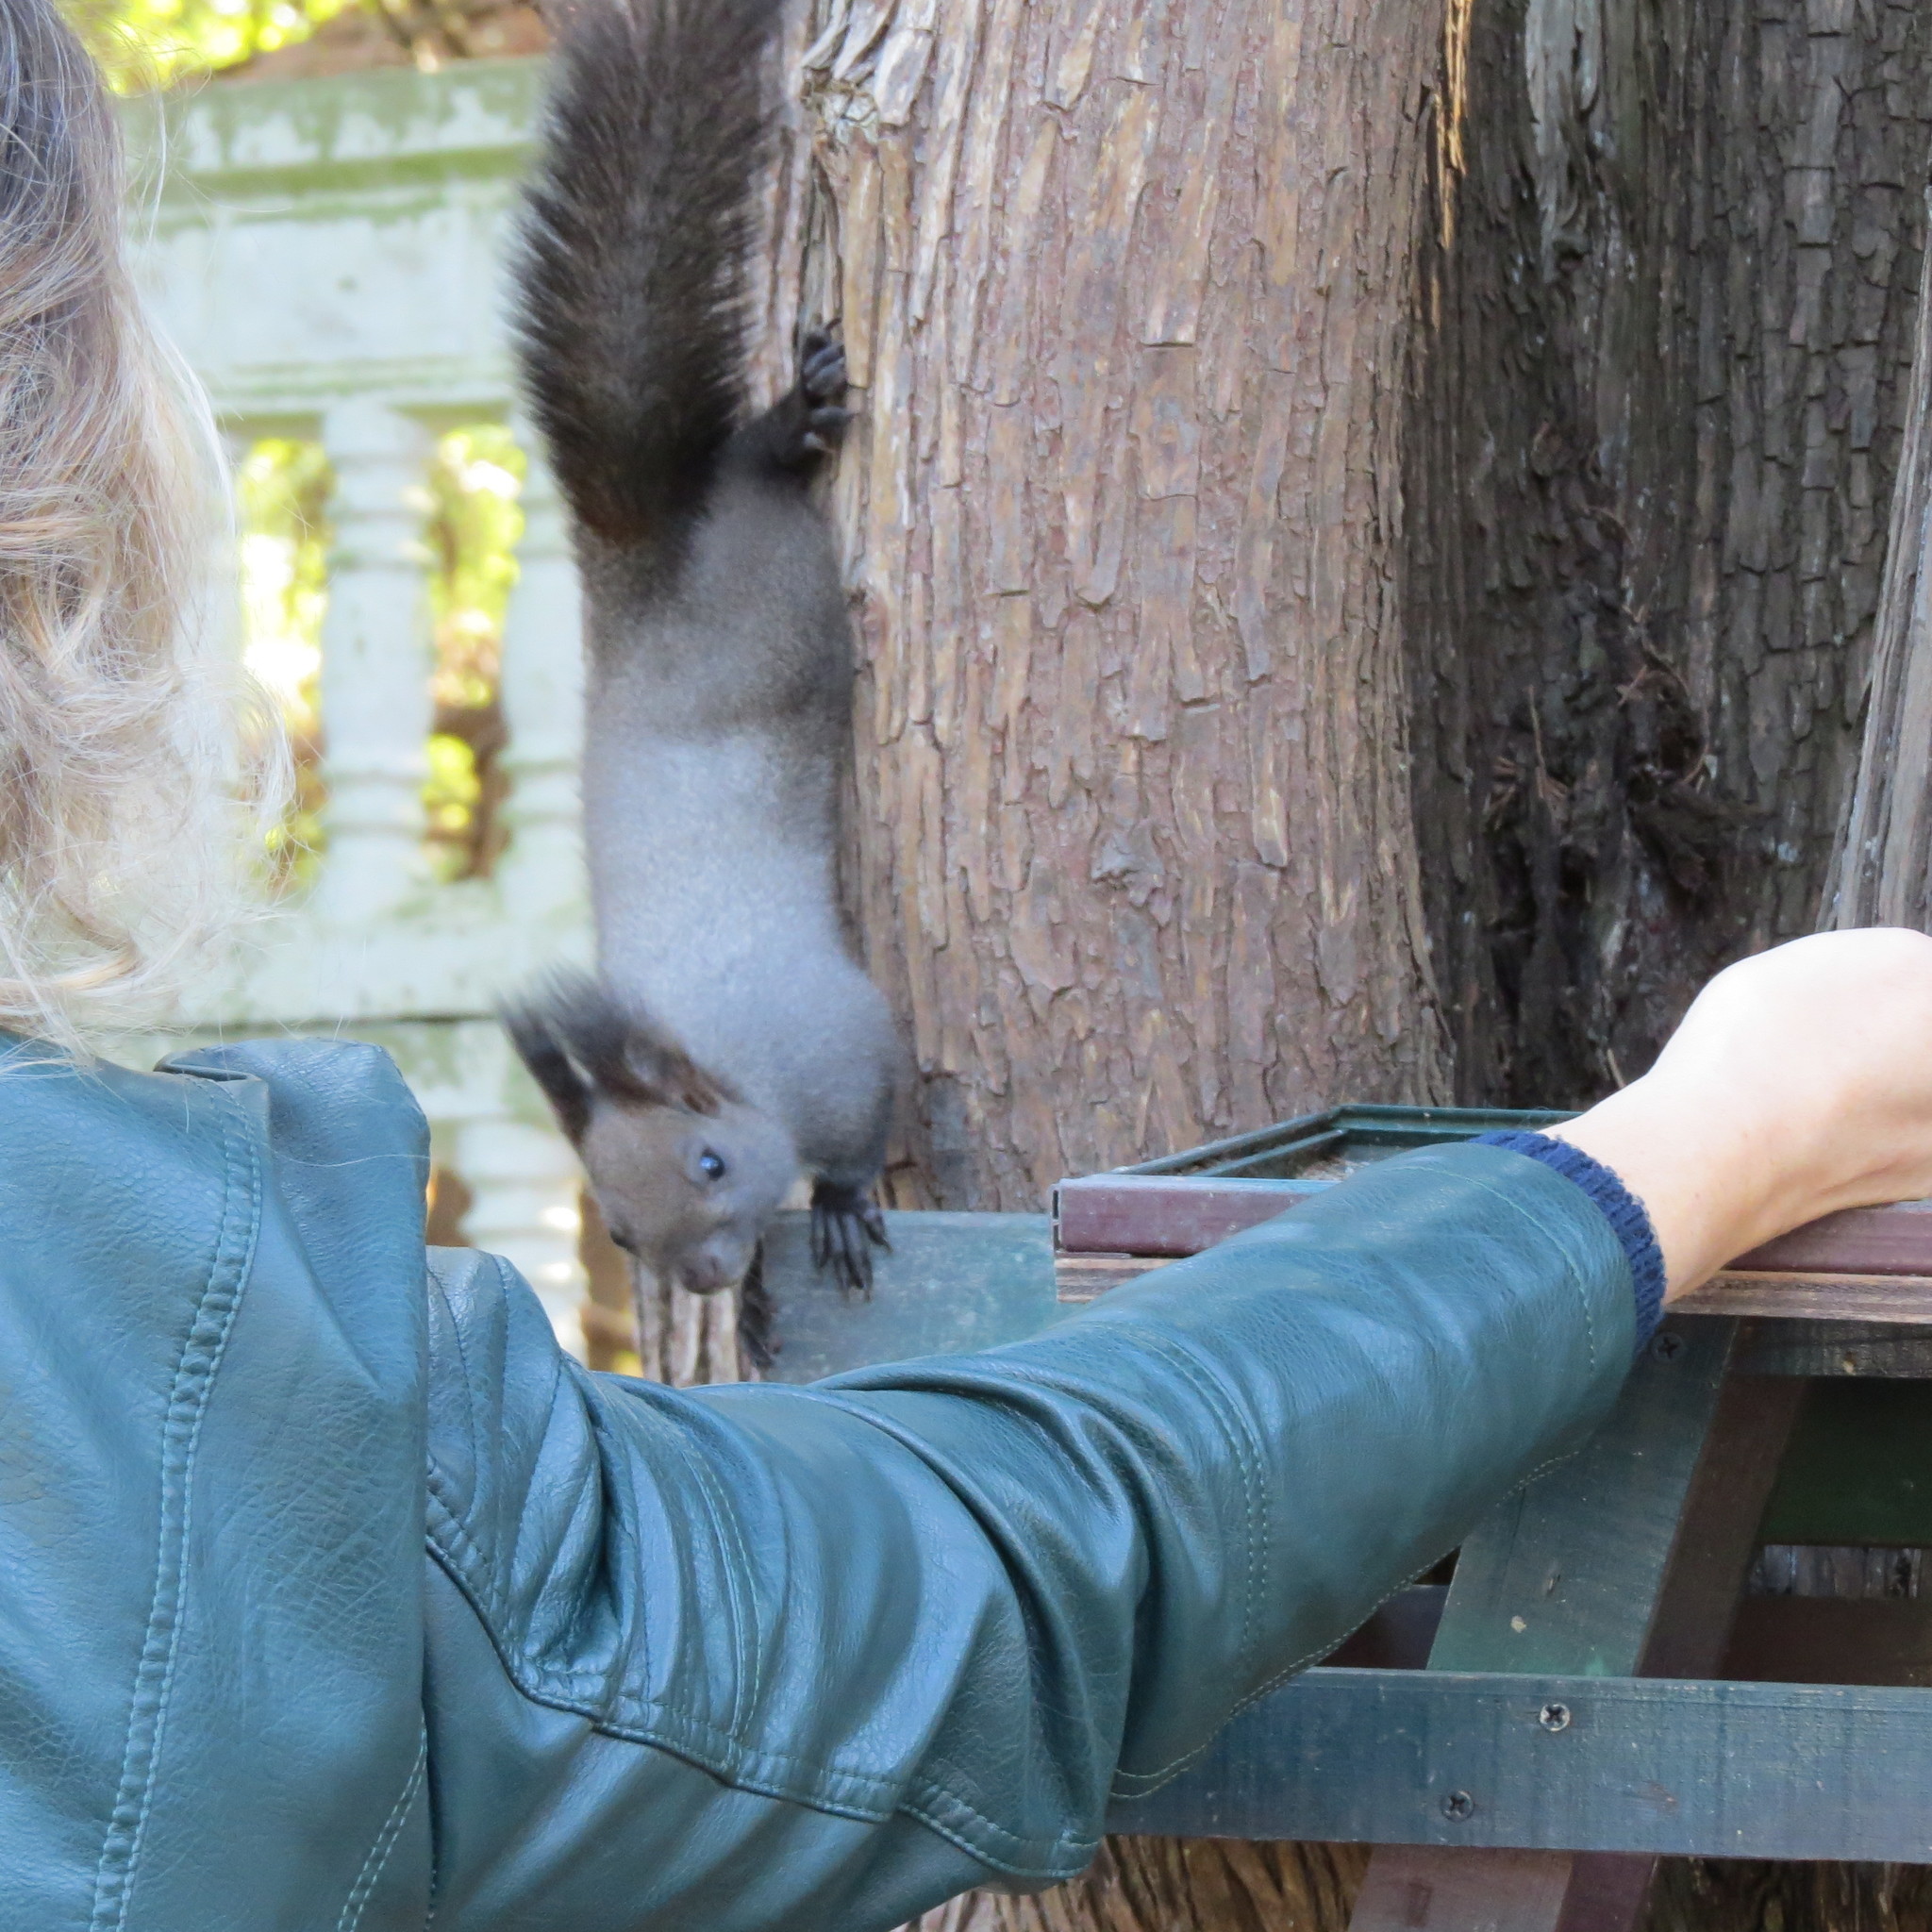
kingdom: Animalia
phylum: Chordata
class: Mammalia
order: Rodentia
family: Sciuridae
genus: Sciurus
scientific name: Sciurus vulgaris
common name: Eurasian red squirrel
